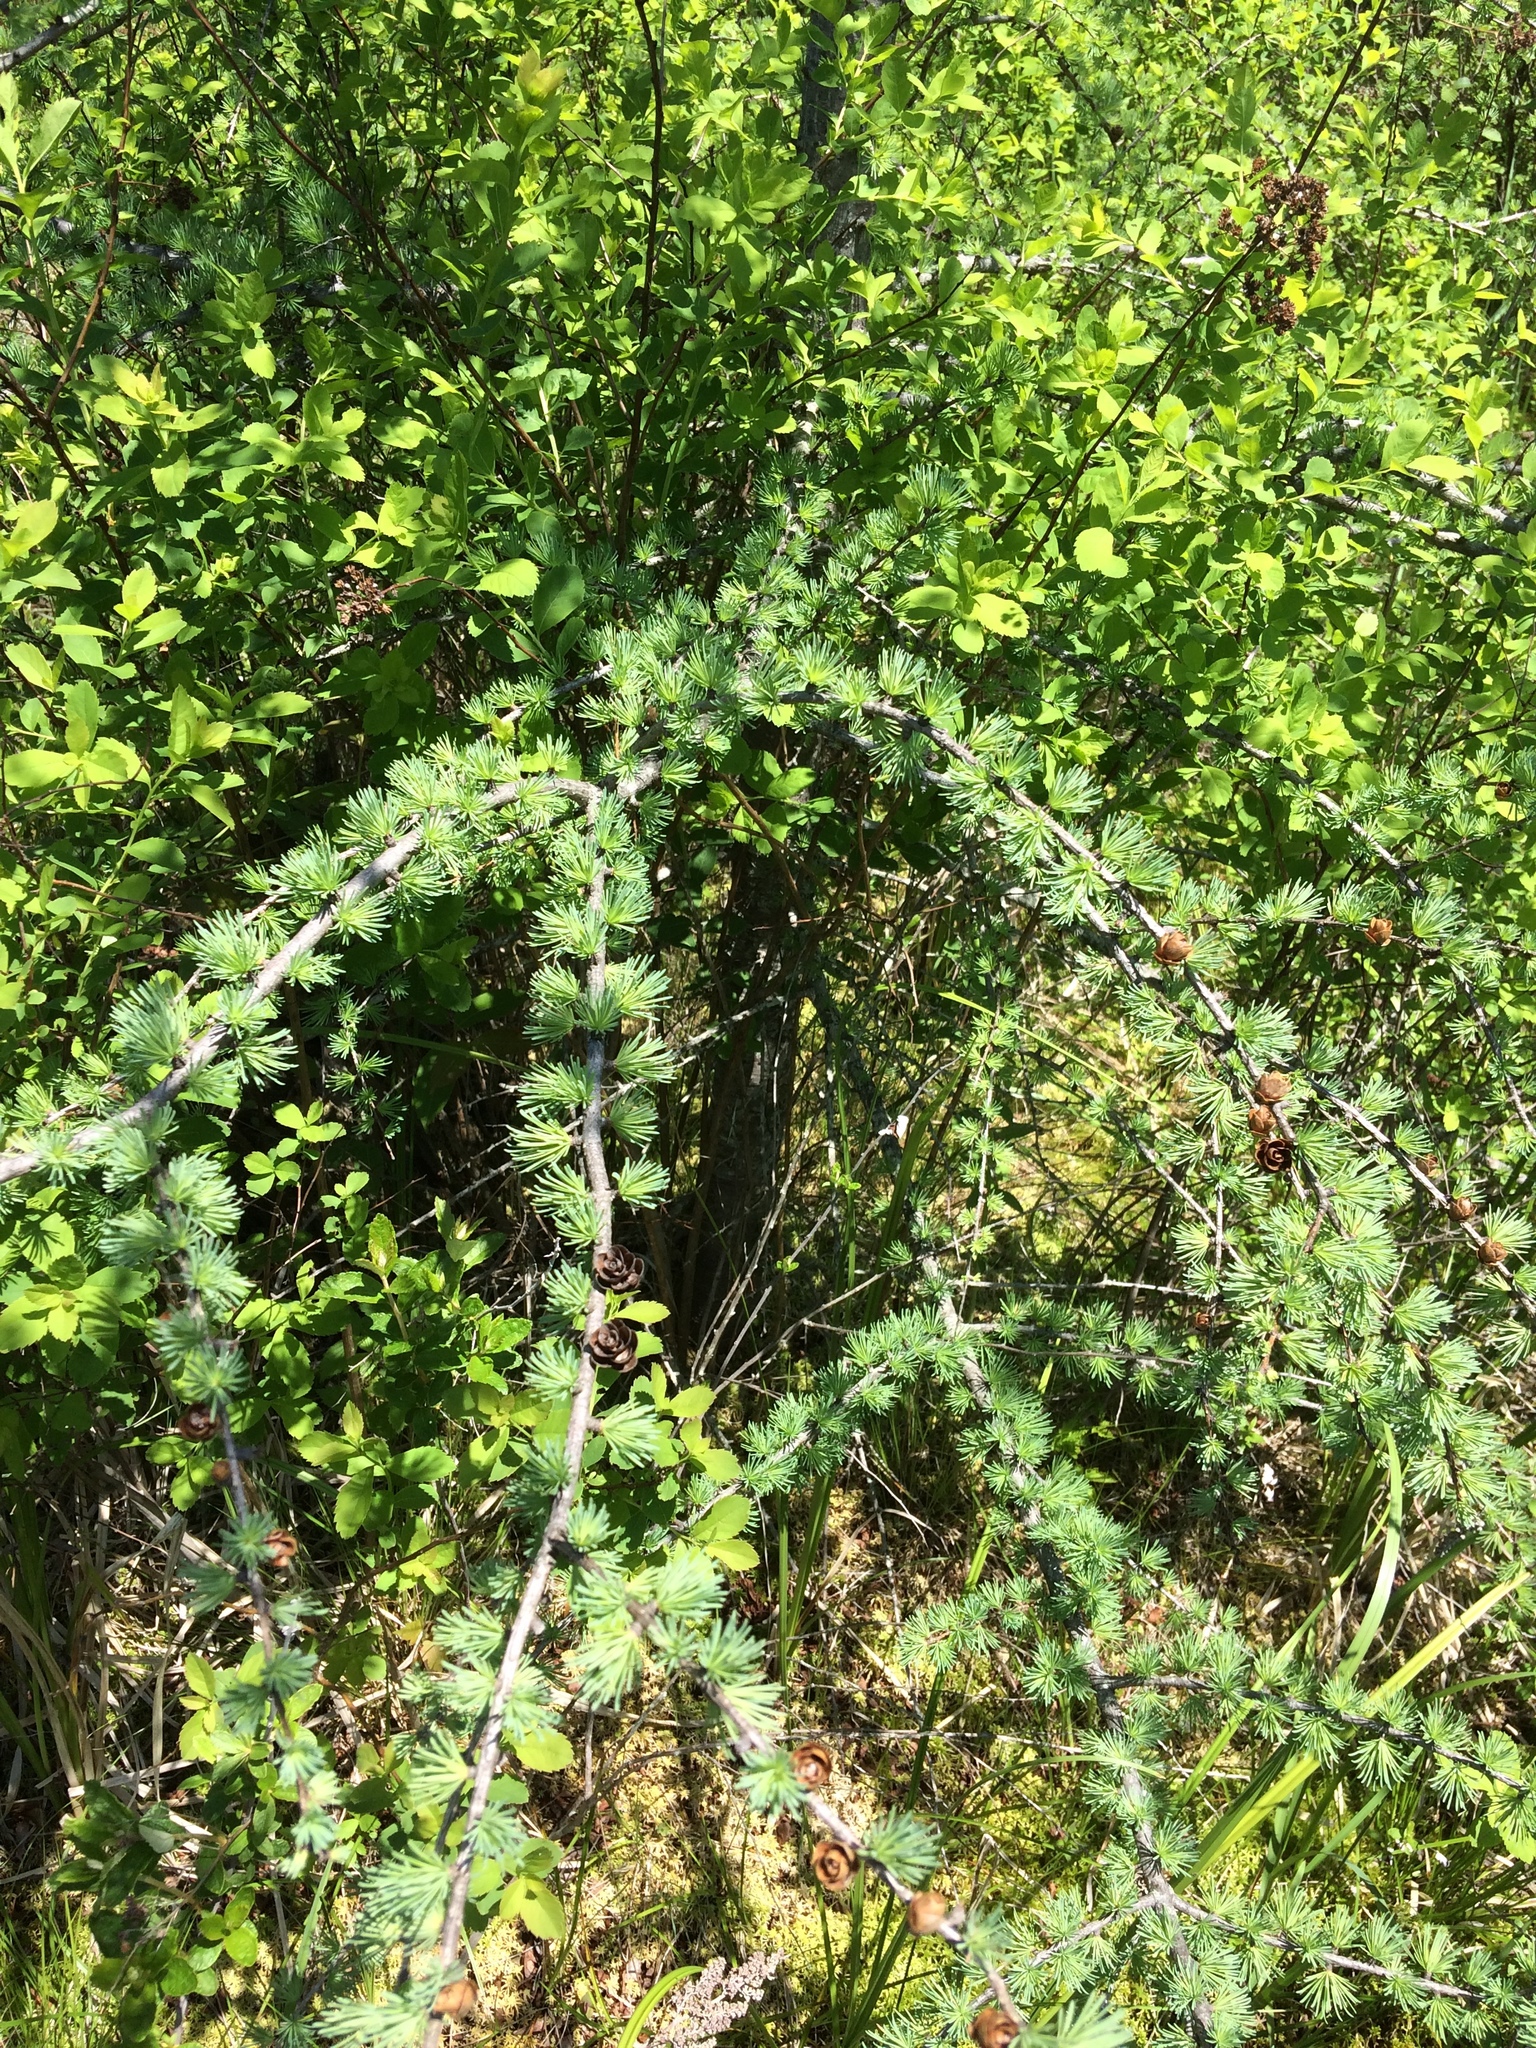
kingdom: Plantae
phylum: Tracheophyta
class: Pinopsida
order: Pinales
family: Pinaceae
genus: Larix
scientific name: Larix laricina
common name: American larch
